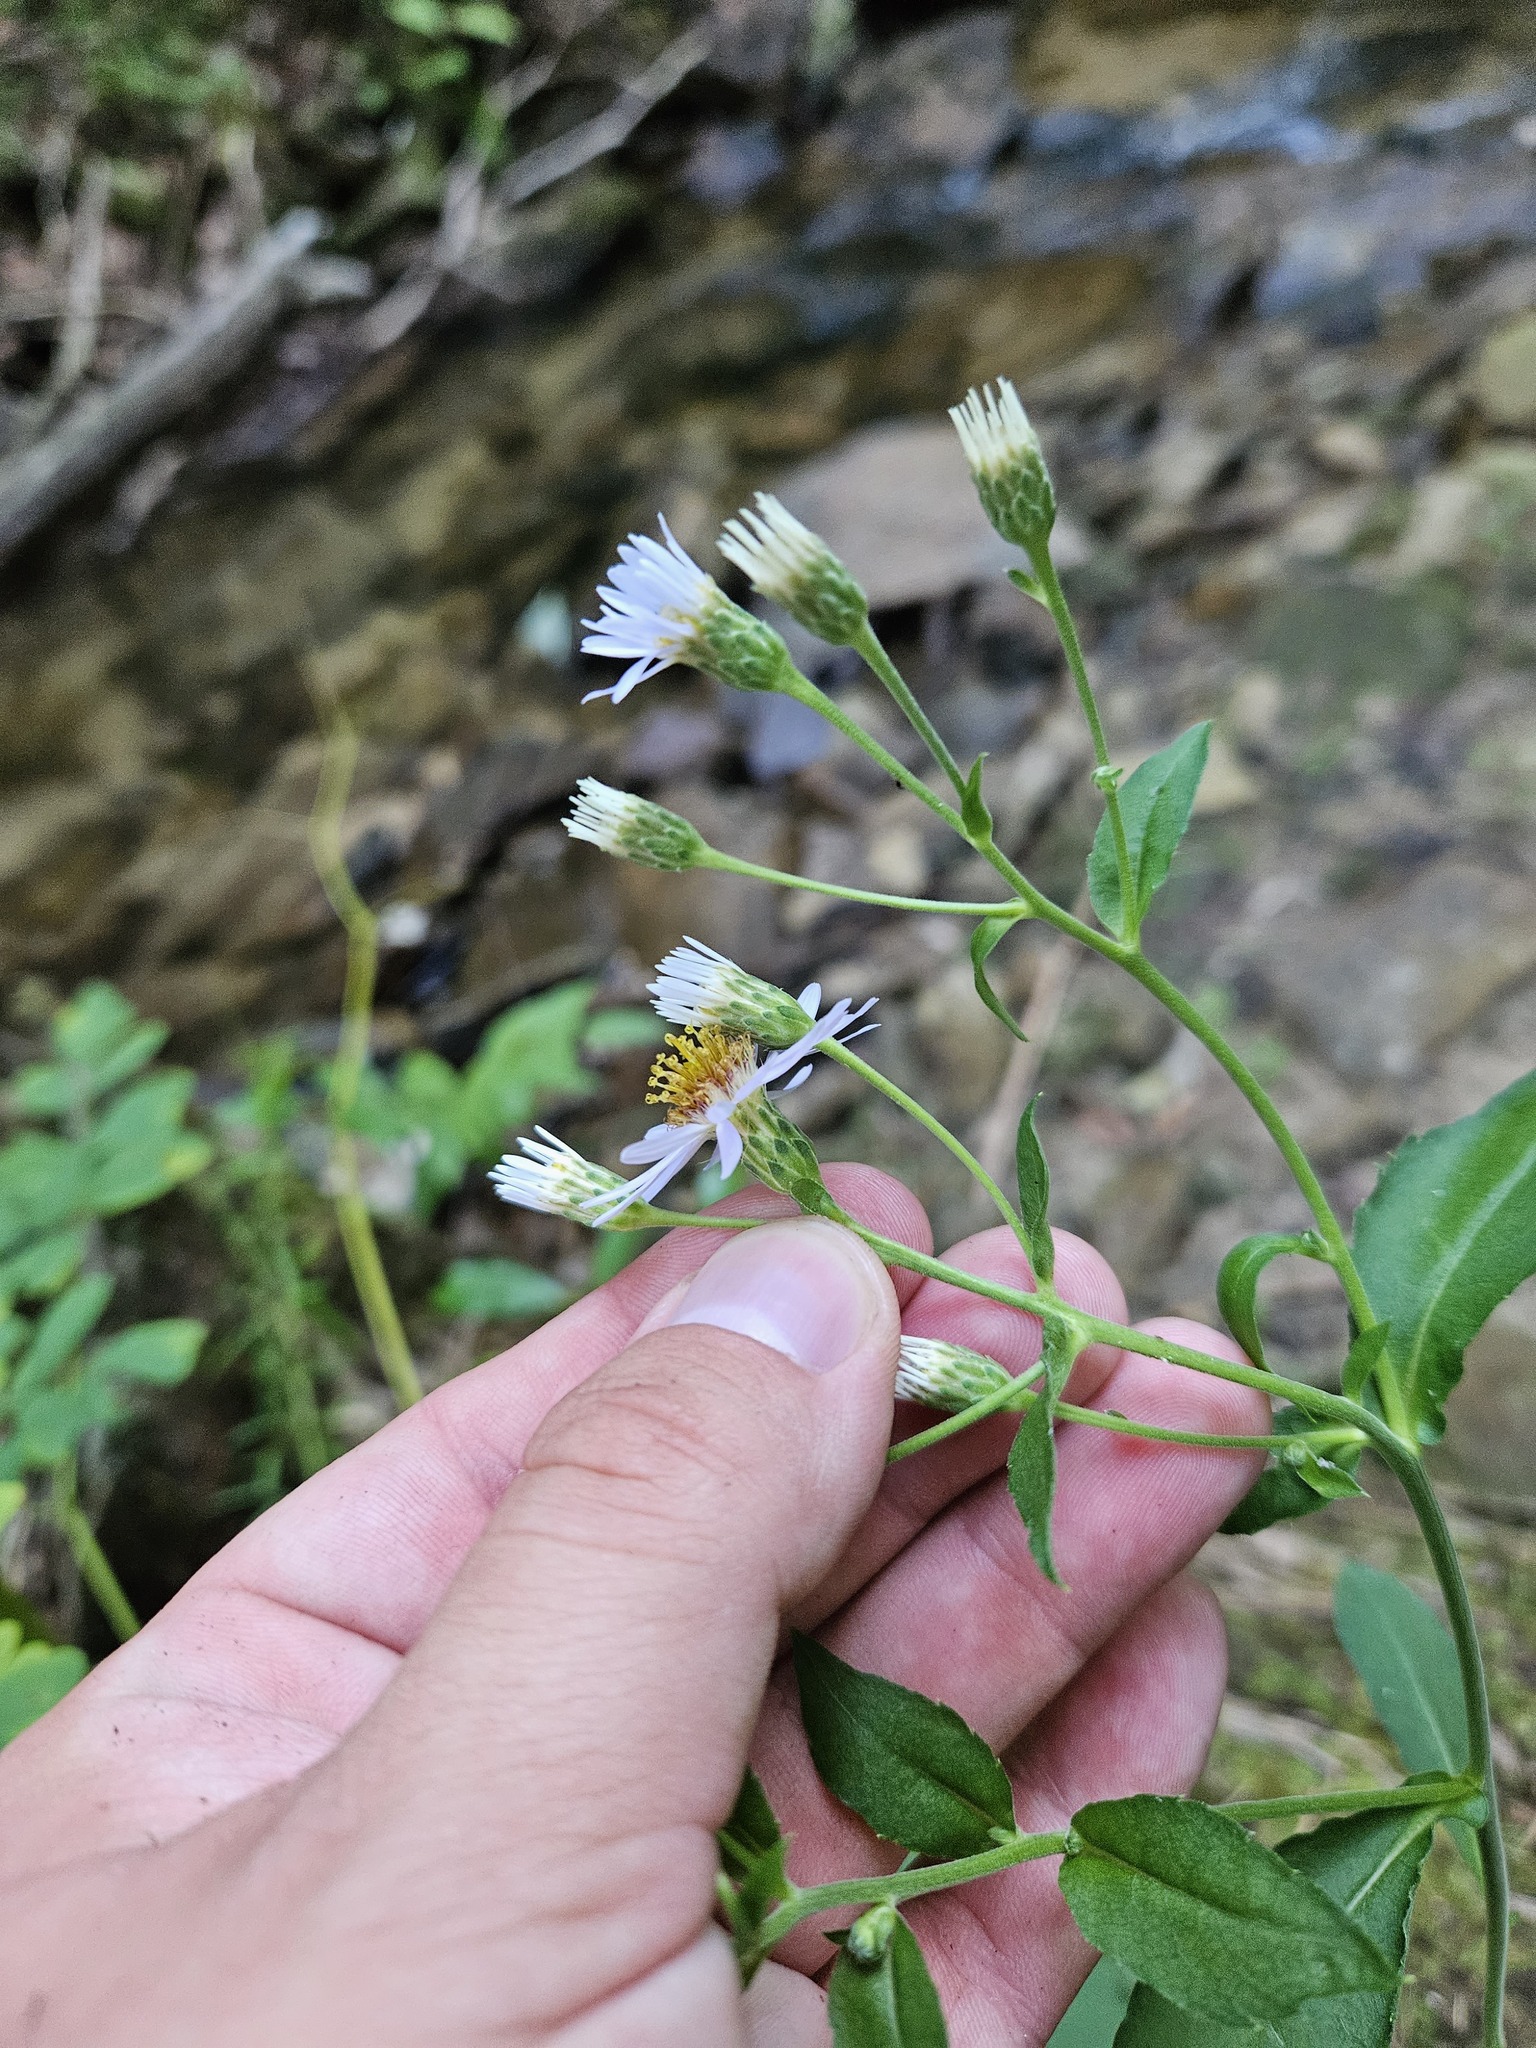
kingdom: Plantae
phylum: Tracheophyta
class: Magnoliopsida
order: Asterales
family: Asteraceae
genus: Eurybia
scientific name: Eurybia macrophylla
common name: Big-leaved aster
